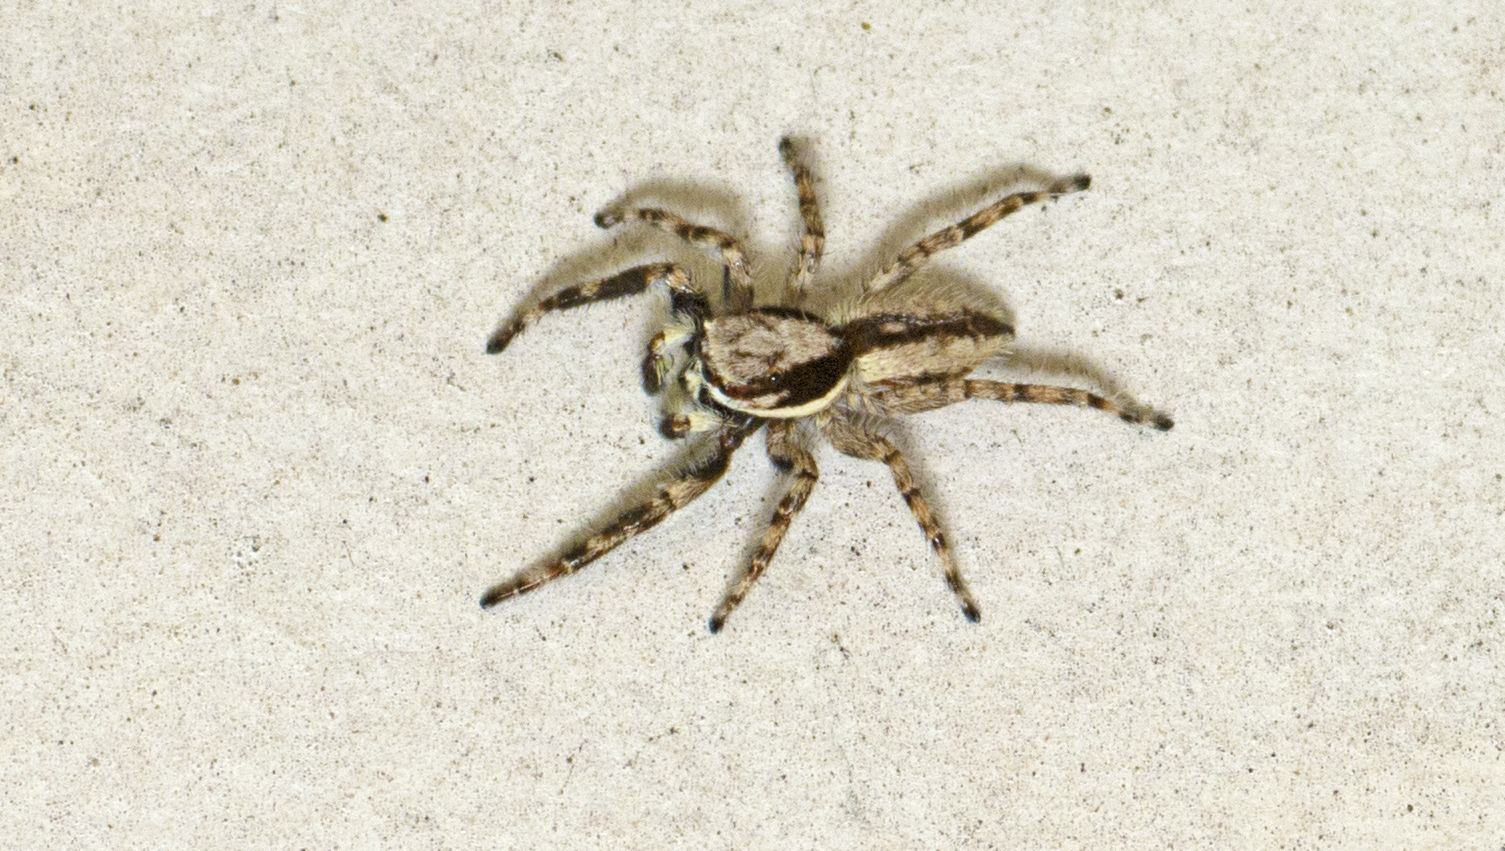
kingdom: Animalia
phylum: Arthropoda
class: Arachnida
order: Araneae
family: Salticidae
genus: Menemerus
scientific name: Menemerus bivittatus
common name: Gray wall jumper
